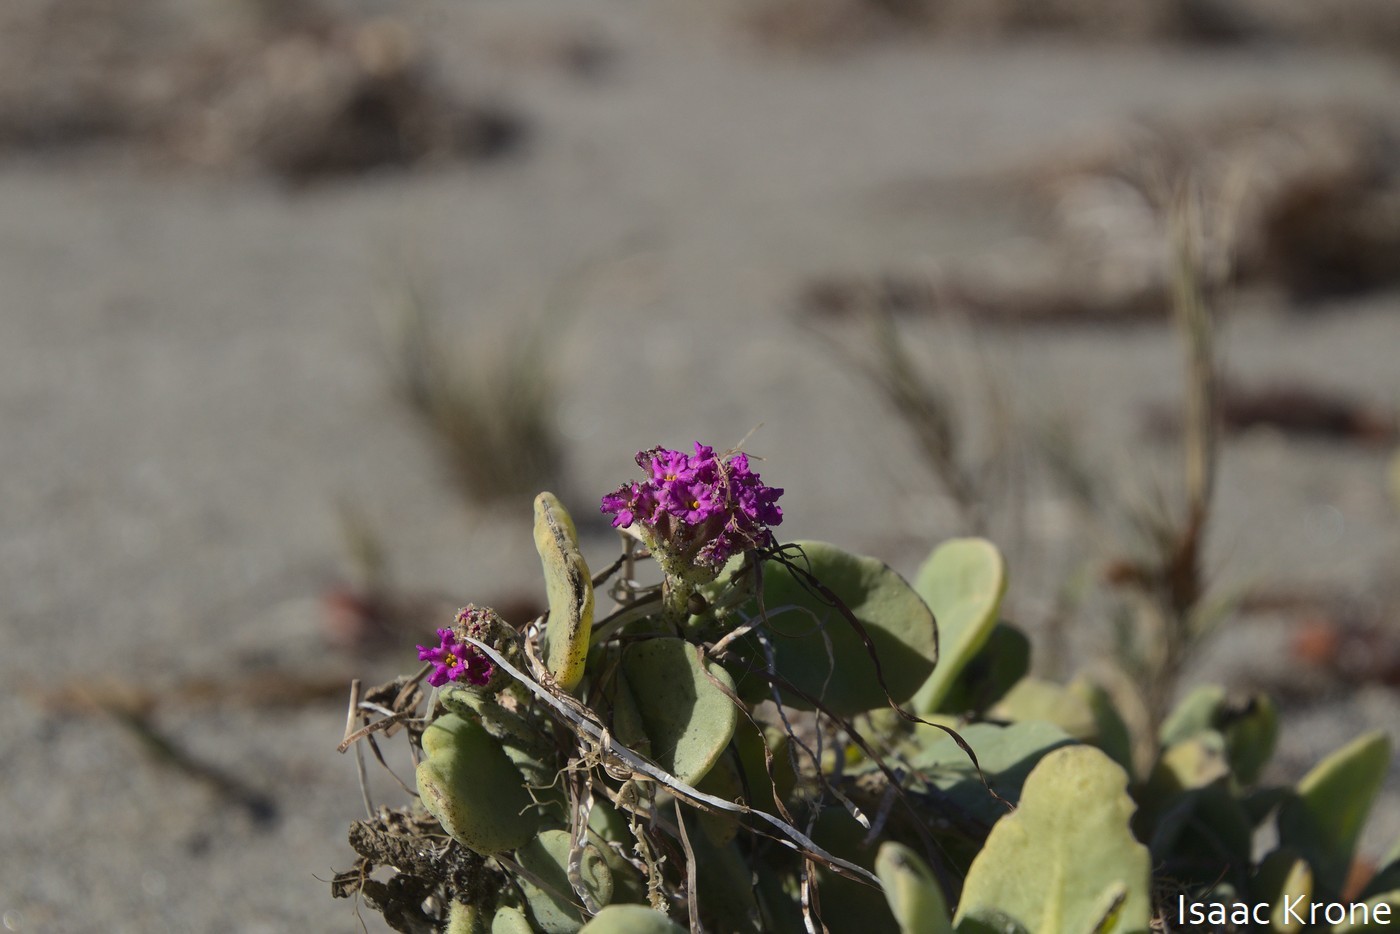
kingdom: Plantae
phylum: Tracheophyta
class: Magnoliopsida
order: Caryophyllales
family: Nyctaginaceae
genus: Abronia
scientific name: Abronia maritima
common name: Red sand-verbena
